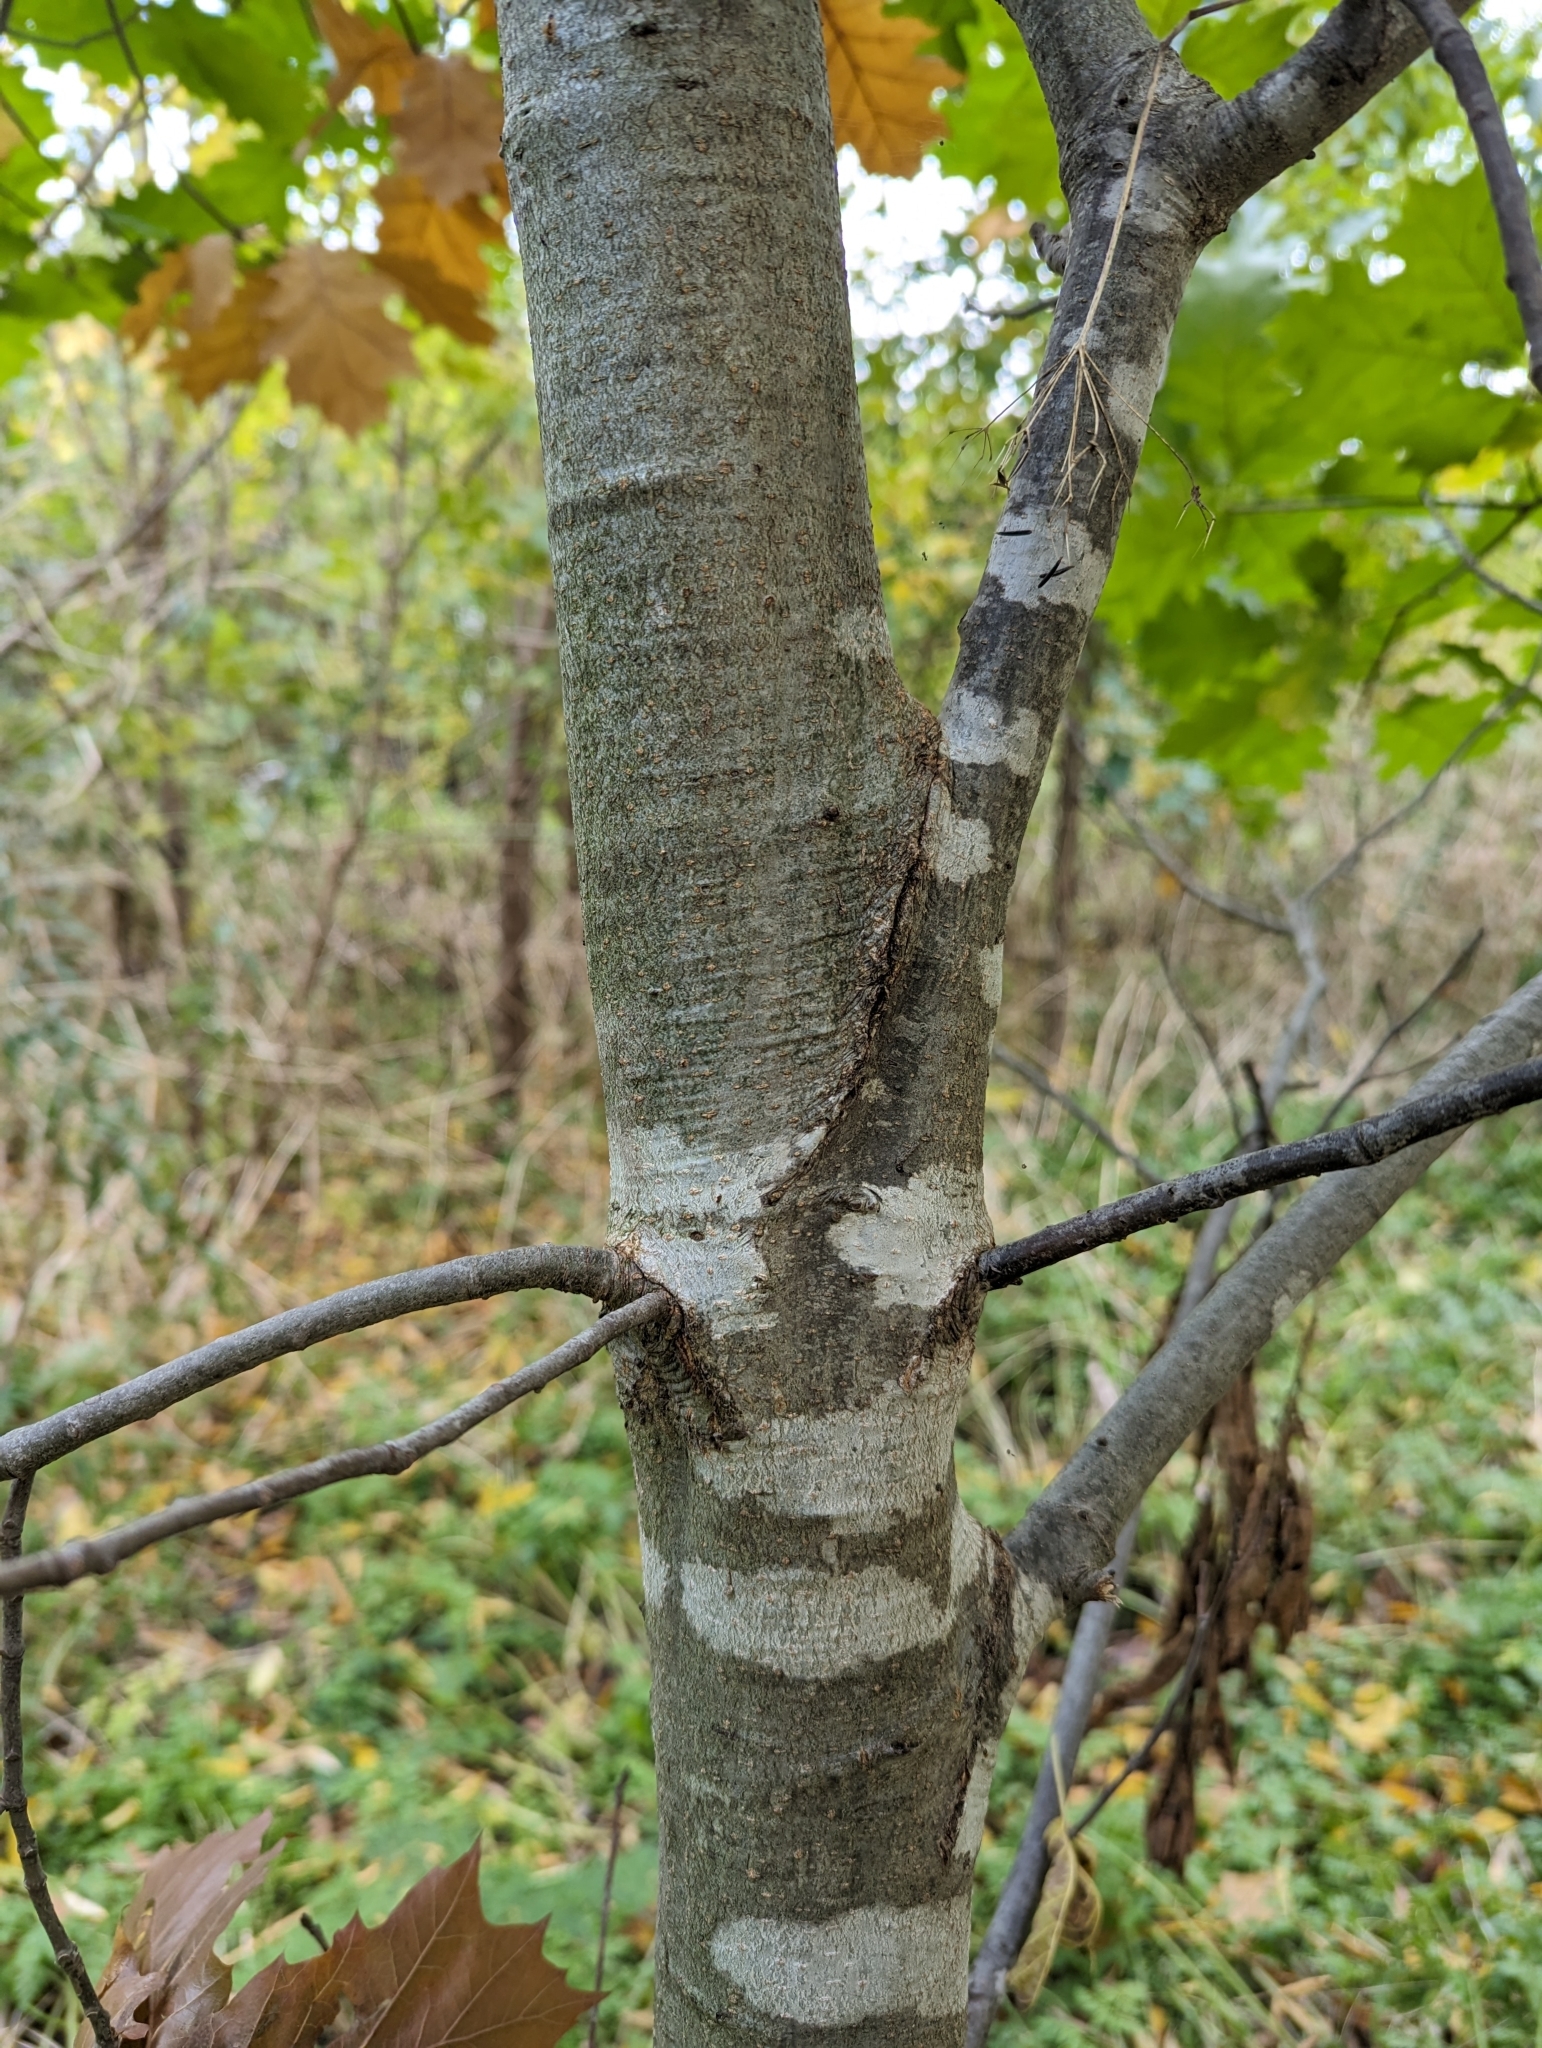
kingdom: Plantae
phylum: Tracheophyta
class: Magnoliopsida
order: Fagales
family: Fagaceae
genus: Quercus
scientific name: Quercus rubra
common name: Red oak
